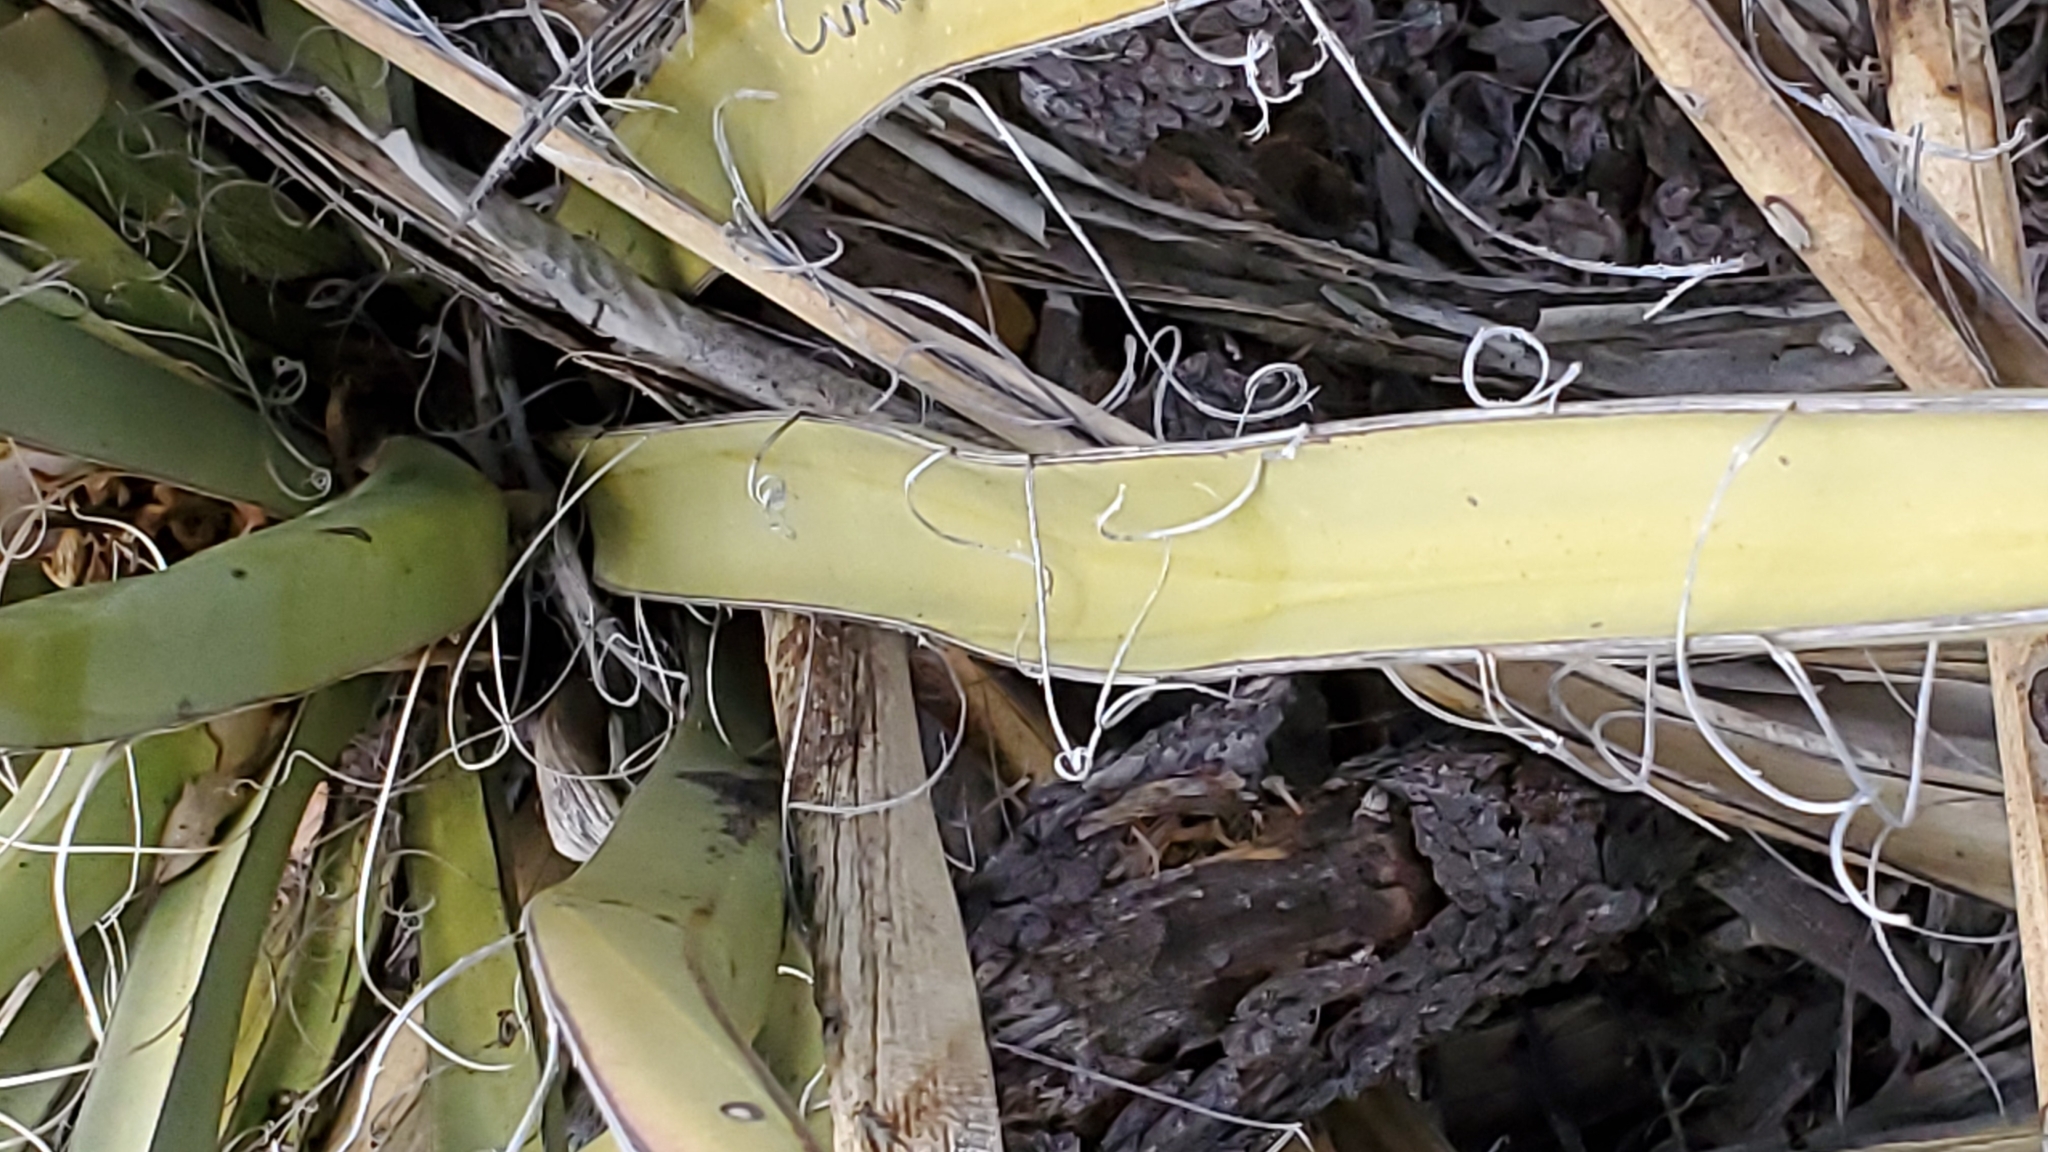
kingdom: Plantae
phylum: Tracheophyta
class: Liliopsida
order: Asparagales
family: Asparagaceae
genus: Yucca
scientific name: Yucca baccata
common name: Banana yucca
